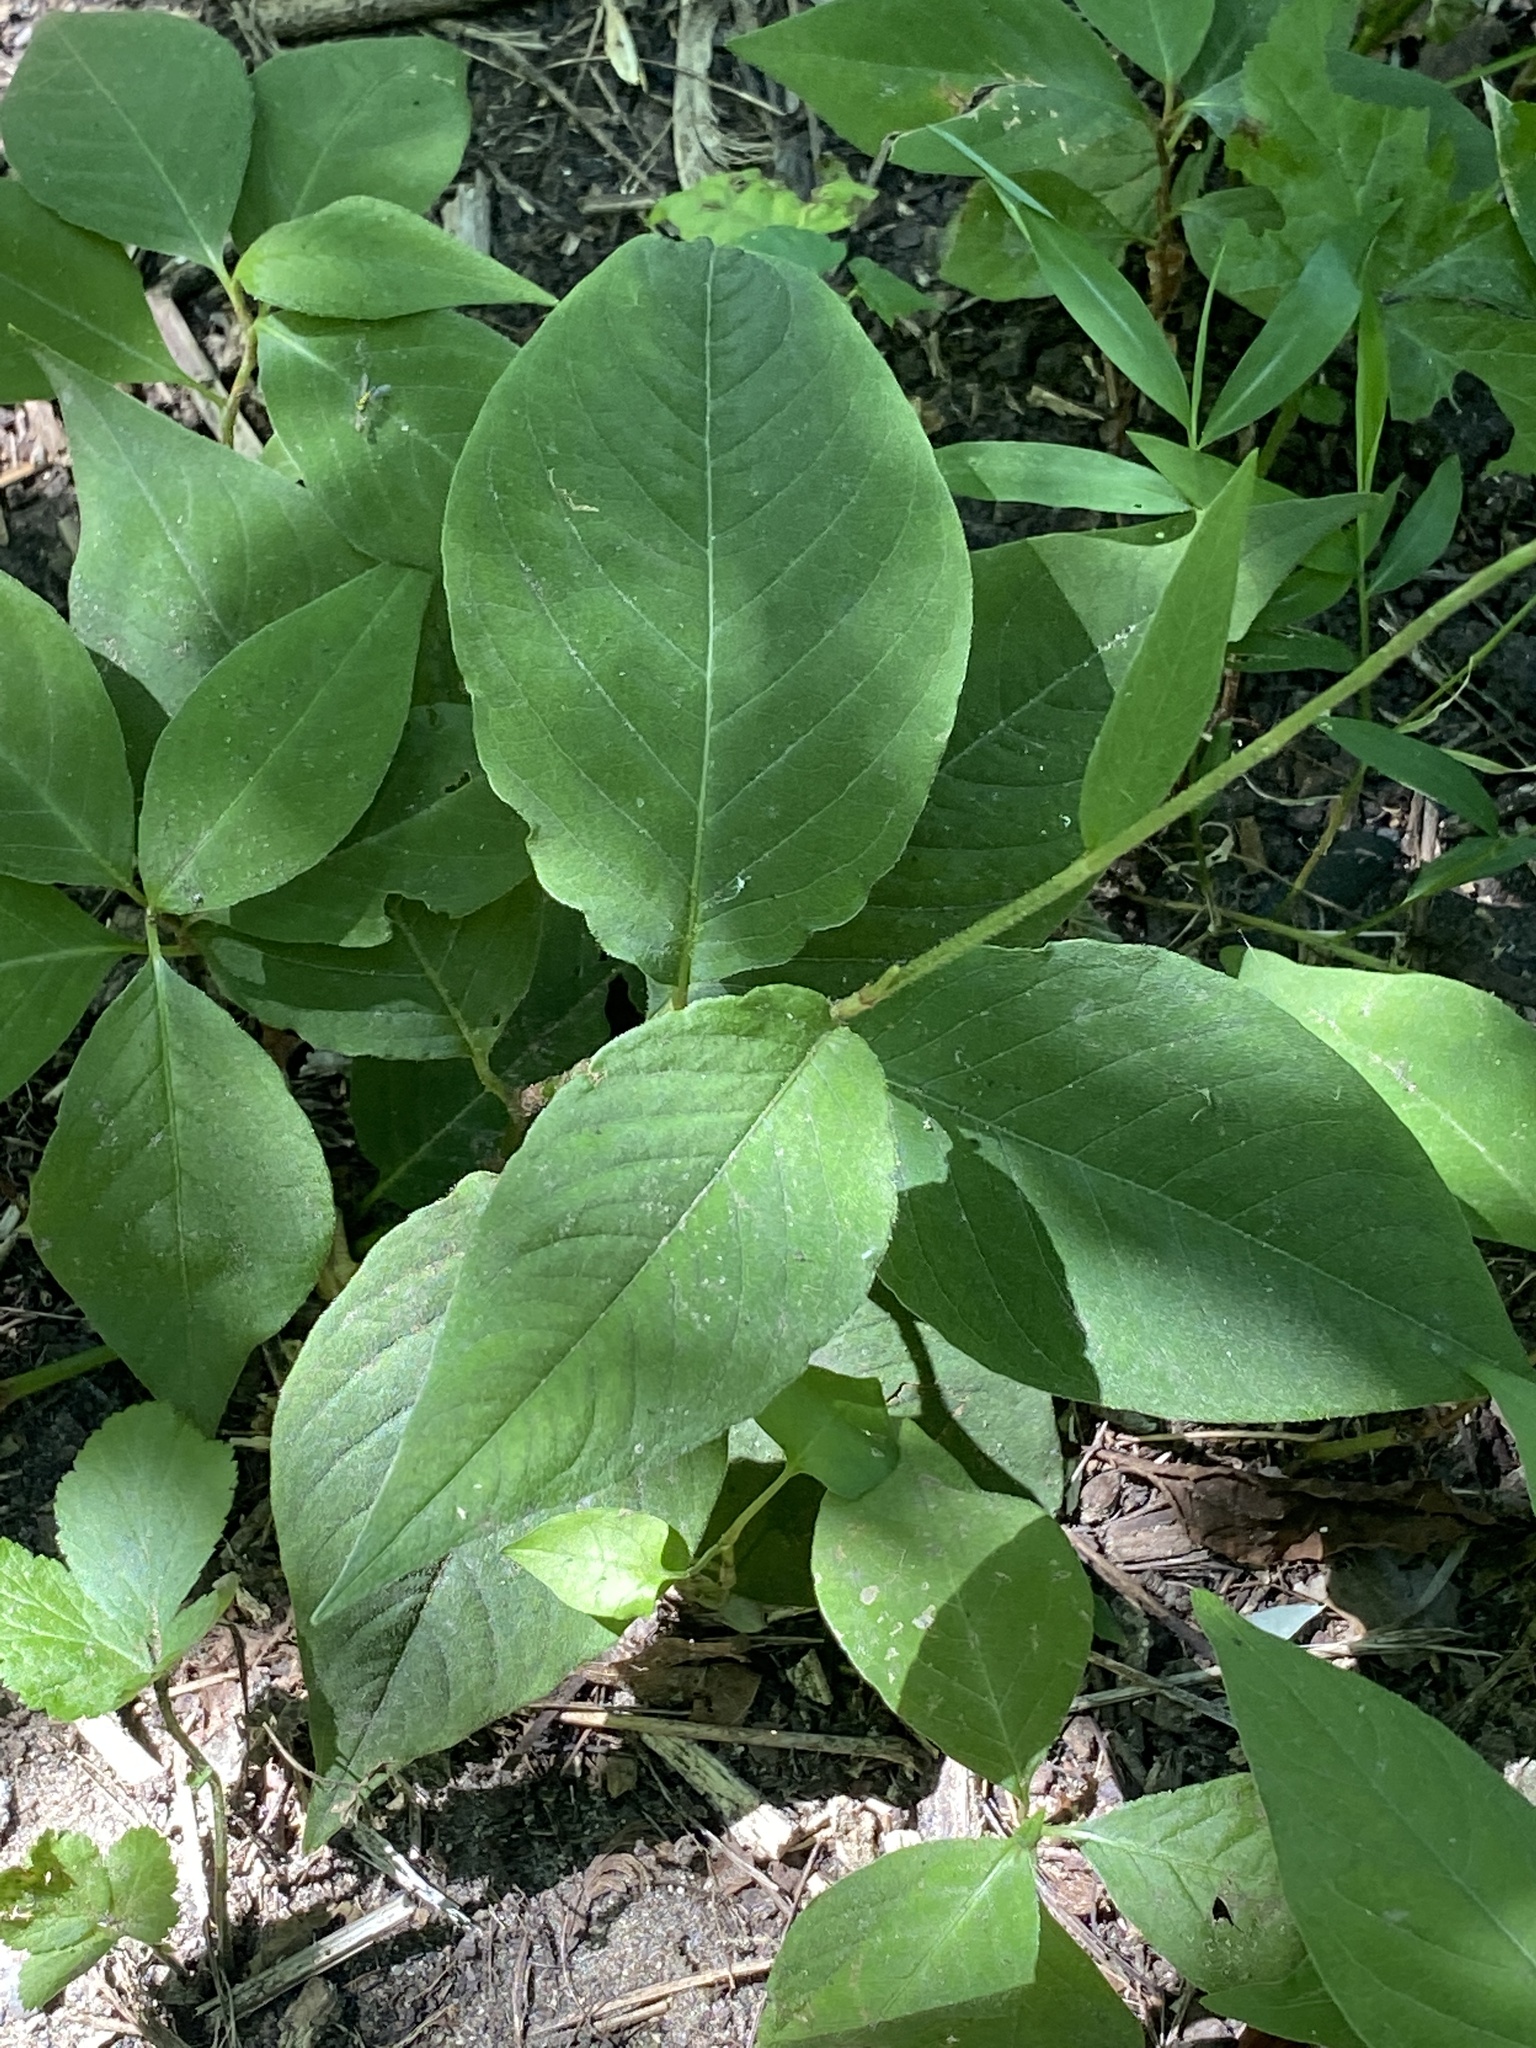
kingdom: Plantae
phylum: Tracheophyta
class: Magnoliopsida
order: Caryophyllales
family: Polygonaceae
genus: Persicaria
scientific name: Persicaria virginiana
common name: Jumpseed
